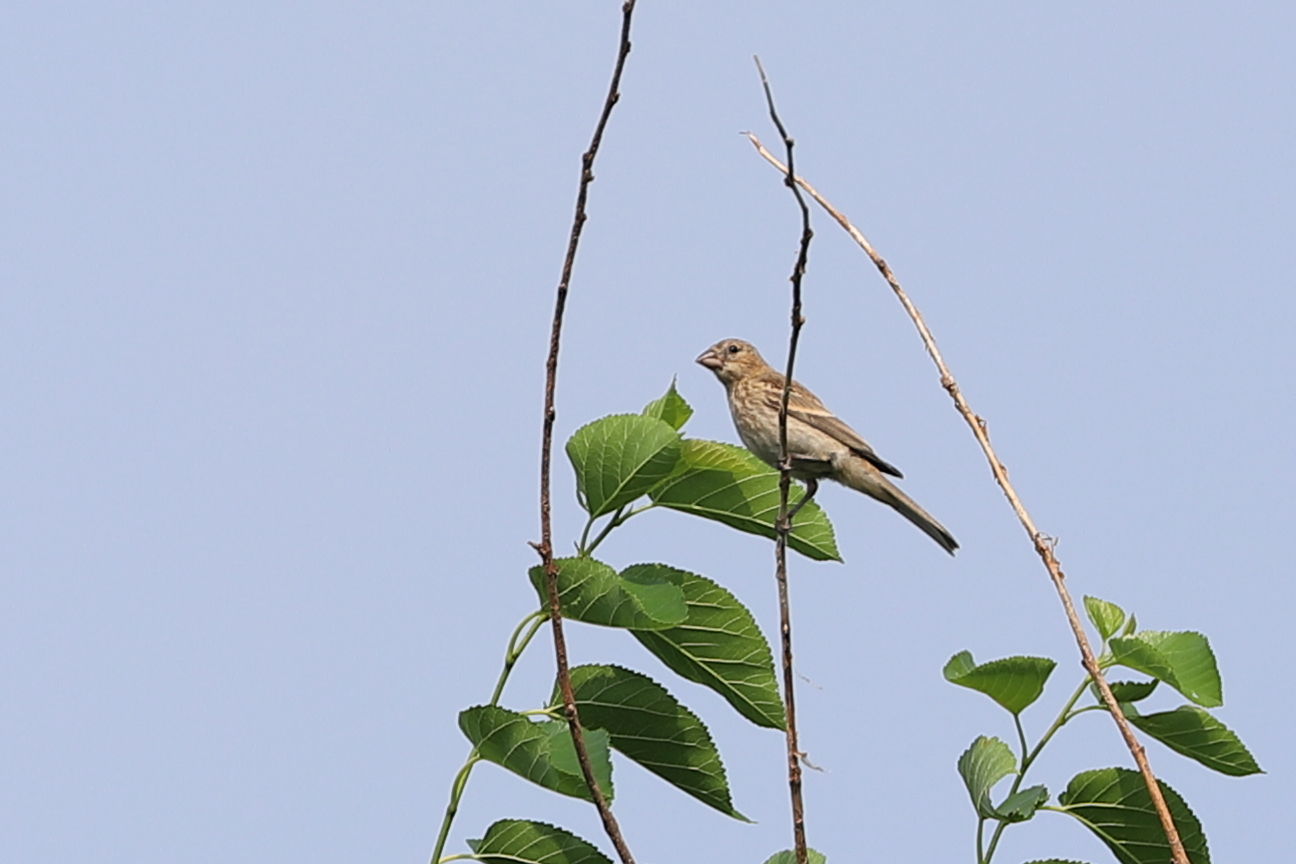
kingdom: Animalia
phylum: Chordata
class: Aves
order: Passeriformes
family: Fringillidae
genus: Haemorhous
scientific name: Haemorhous mexicanus
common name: House finch
